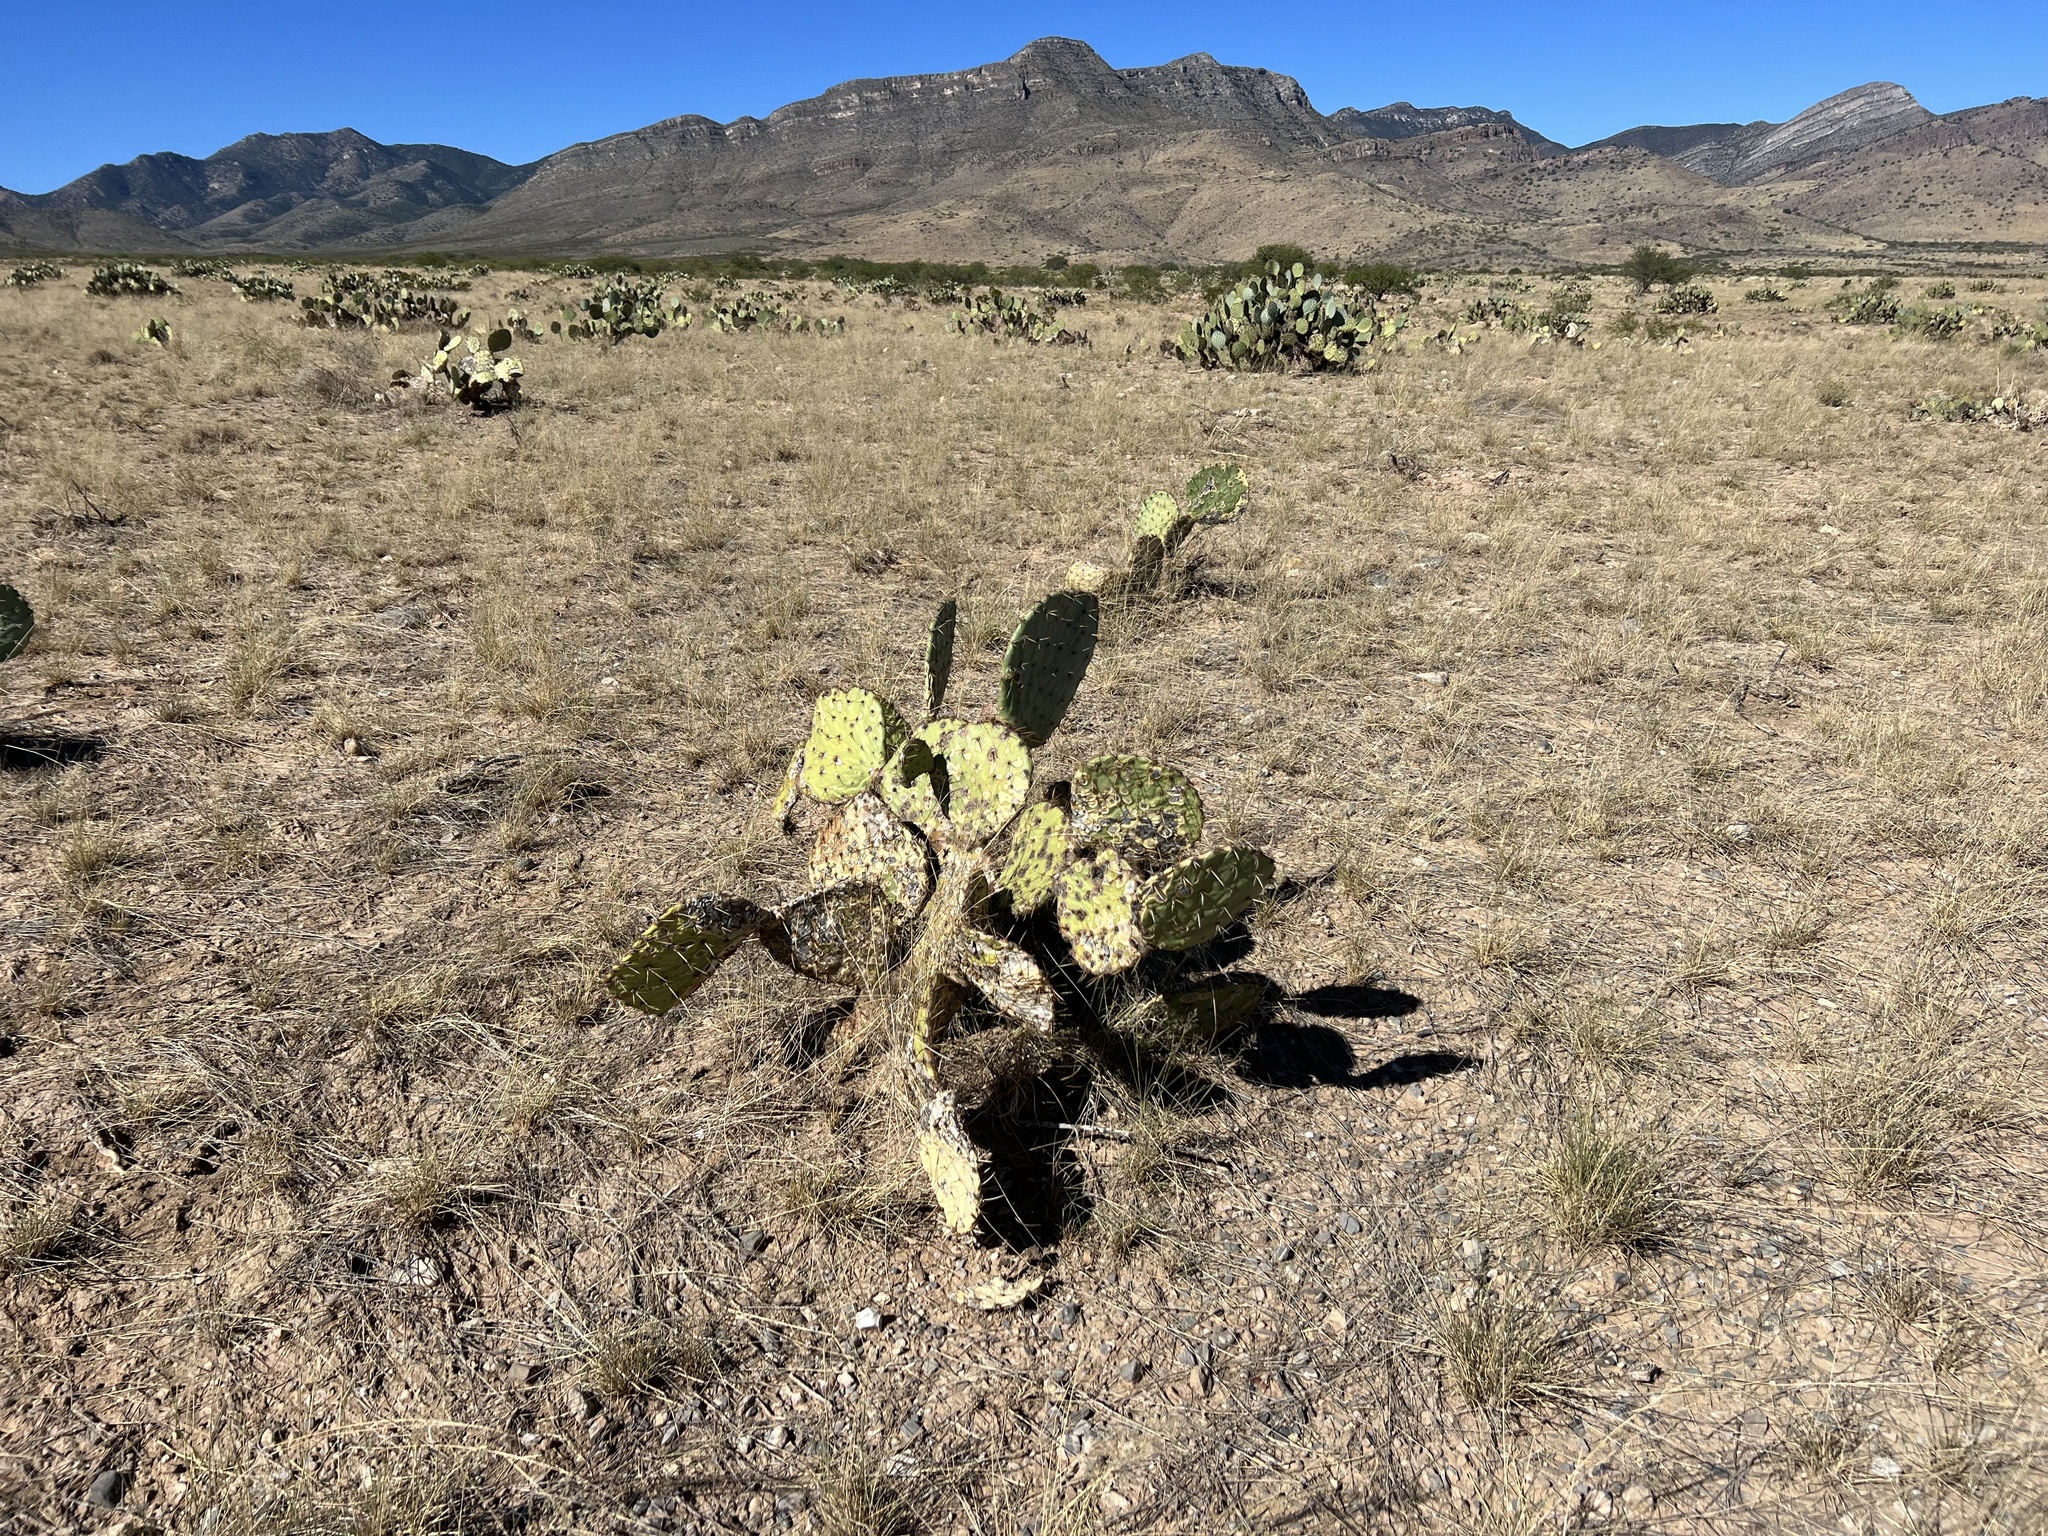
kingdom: Plantae
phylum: Tracheophyta
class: Magnoliopsida
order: Caryophyllales
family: Cactaceae
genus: Opuntia
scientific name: Opuntia engelmannii
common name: Cactus-apple
